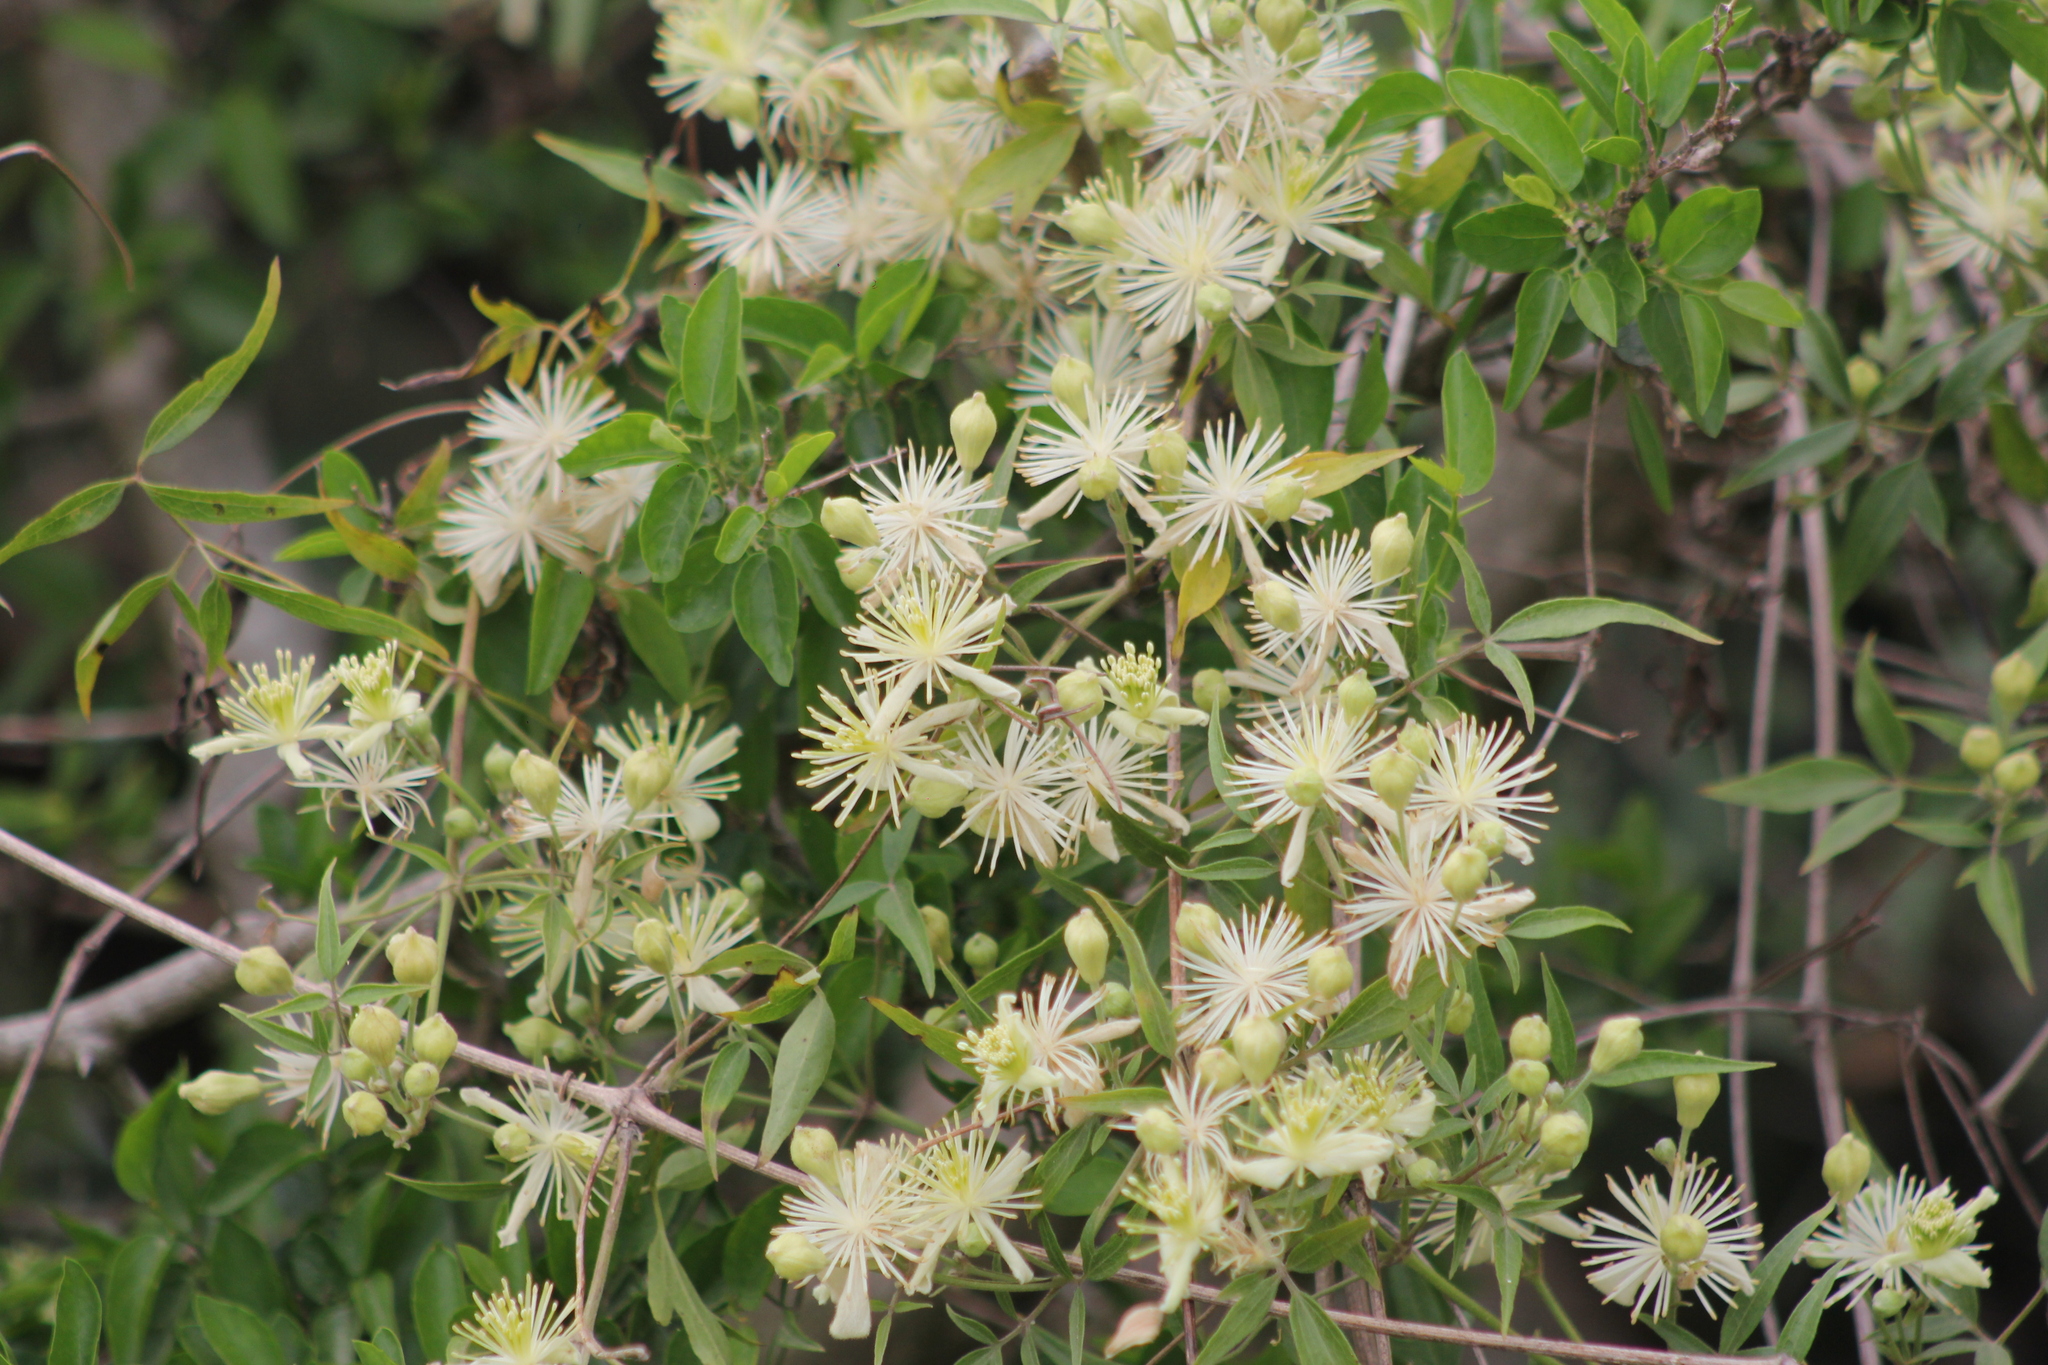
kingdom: Plantae
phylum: Tracheophyta
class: Magnoliopsida
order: Ranunculales
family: Ranunculaceae
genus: Clematis
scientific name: Clematis montevidensis
